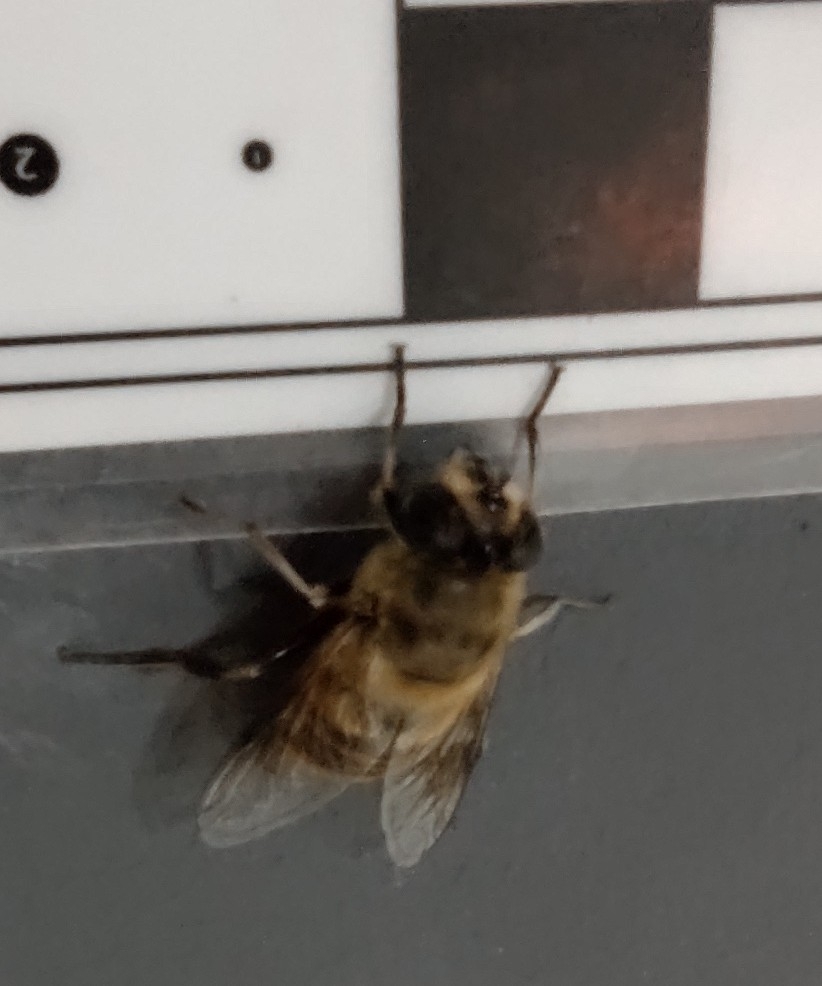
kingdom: Animalia
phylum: Arthropoda
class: Insecta
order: Diptera
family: Syrphidae
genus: Eristalis
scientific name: Eristalis tenax
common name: Drone fly
